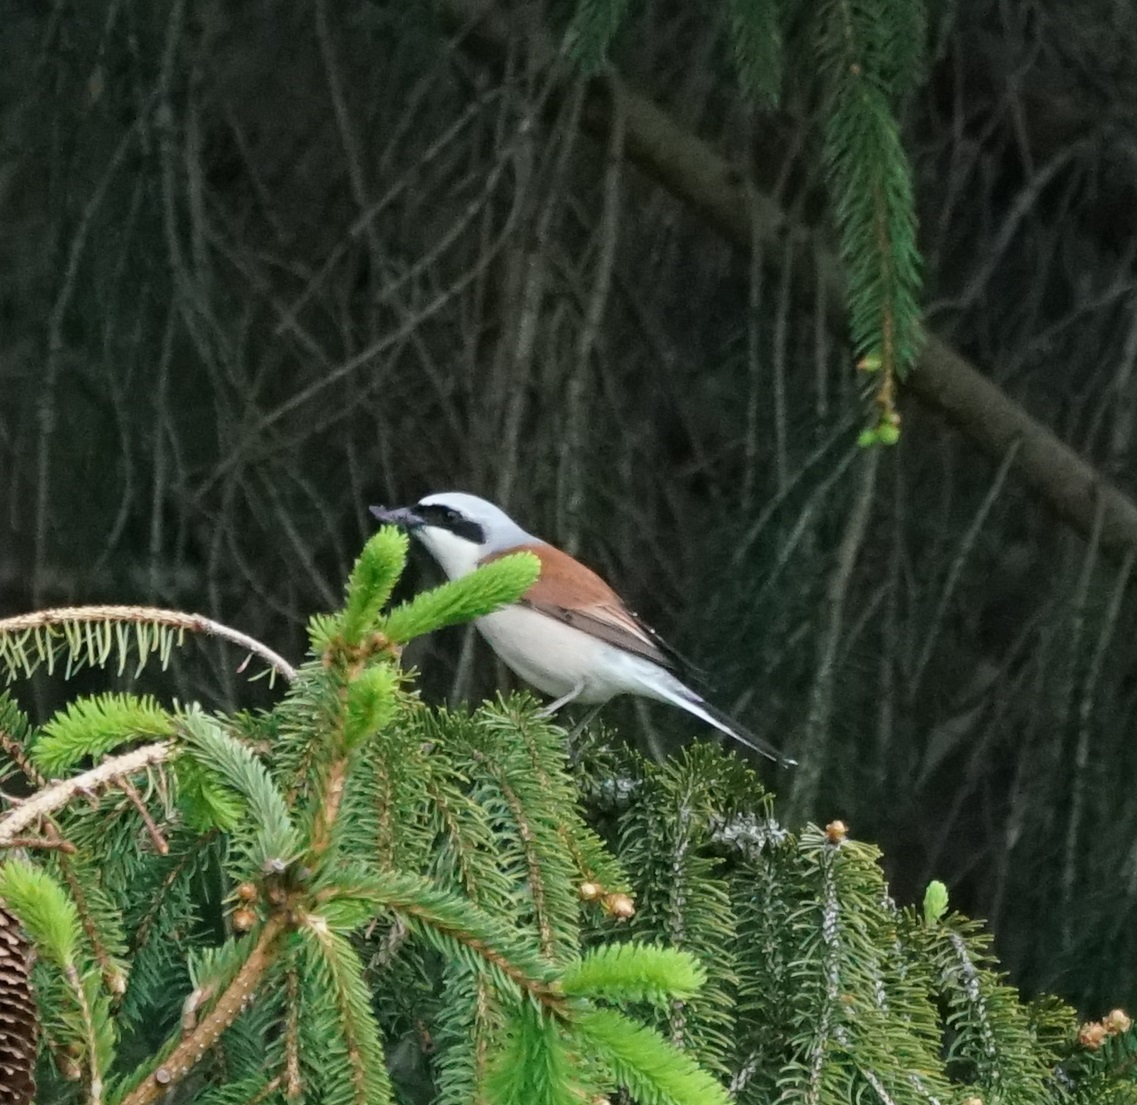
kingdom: Animalia
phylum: Chordata
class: Aves
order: Passeriformes
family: Laniidae
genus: Lanius
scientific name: Lanius collurio
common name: Red-backed shrike
